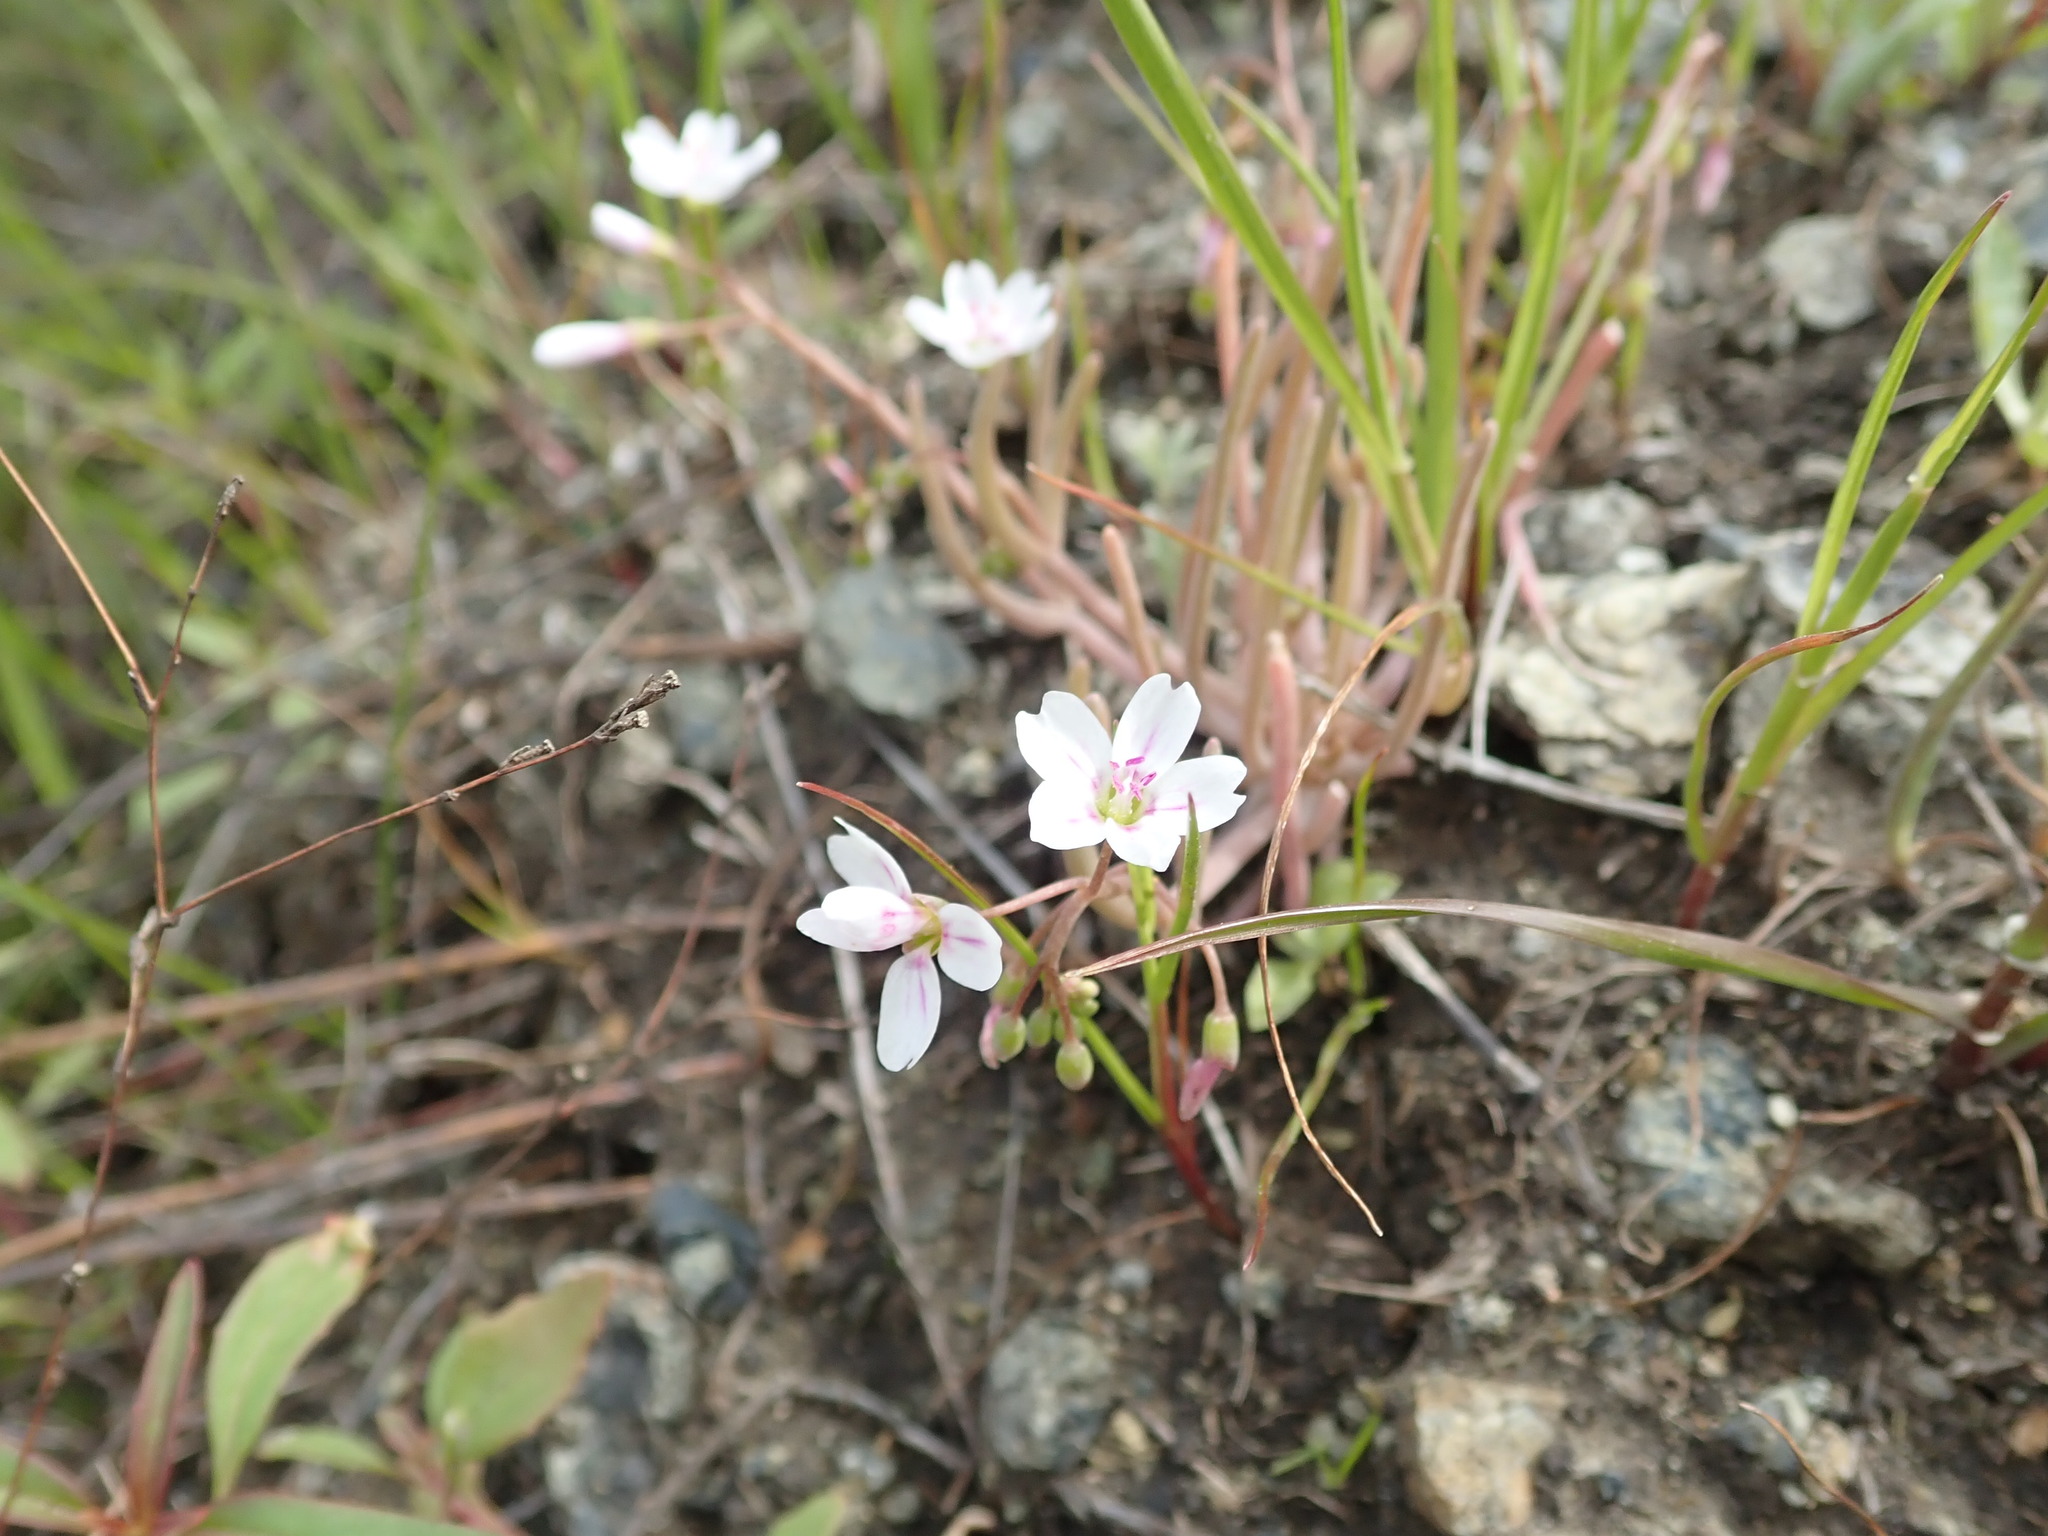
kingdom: Plantae
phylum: Tracheophyta
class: Magnoliopsida
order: Caryophyllales
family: Montiaceae
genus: Claytonia
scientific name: Claytonia gypsophiloides
